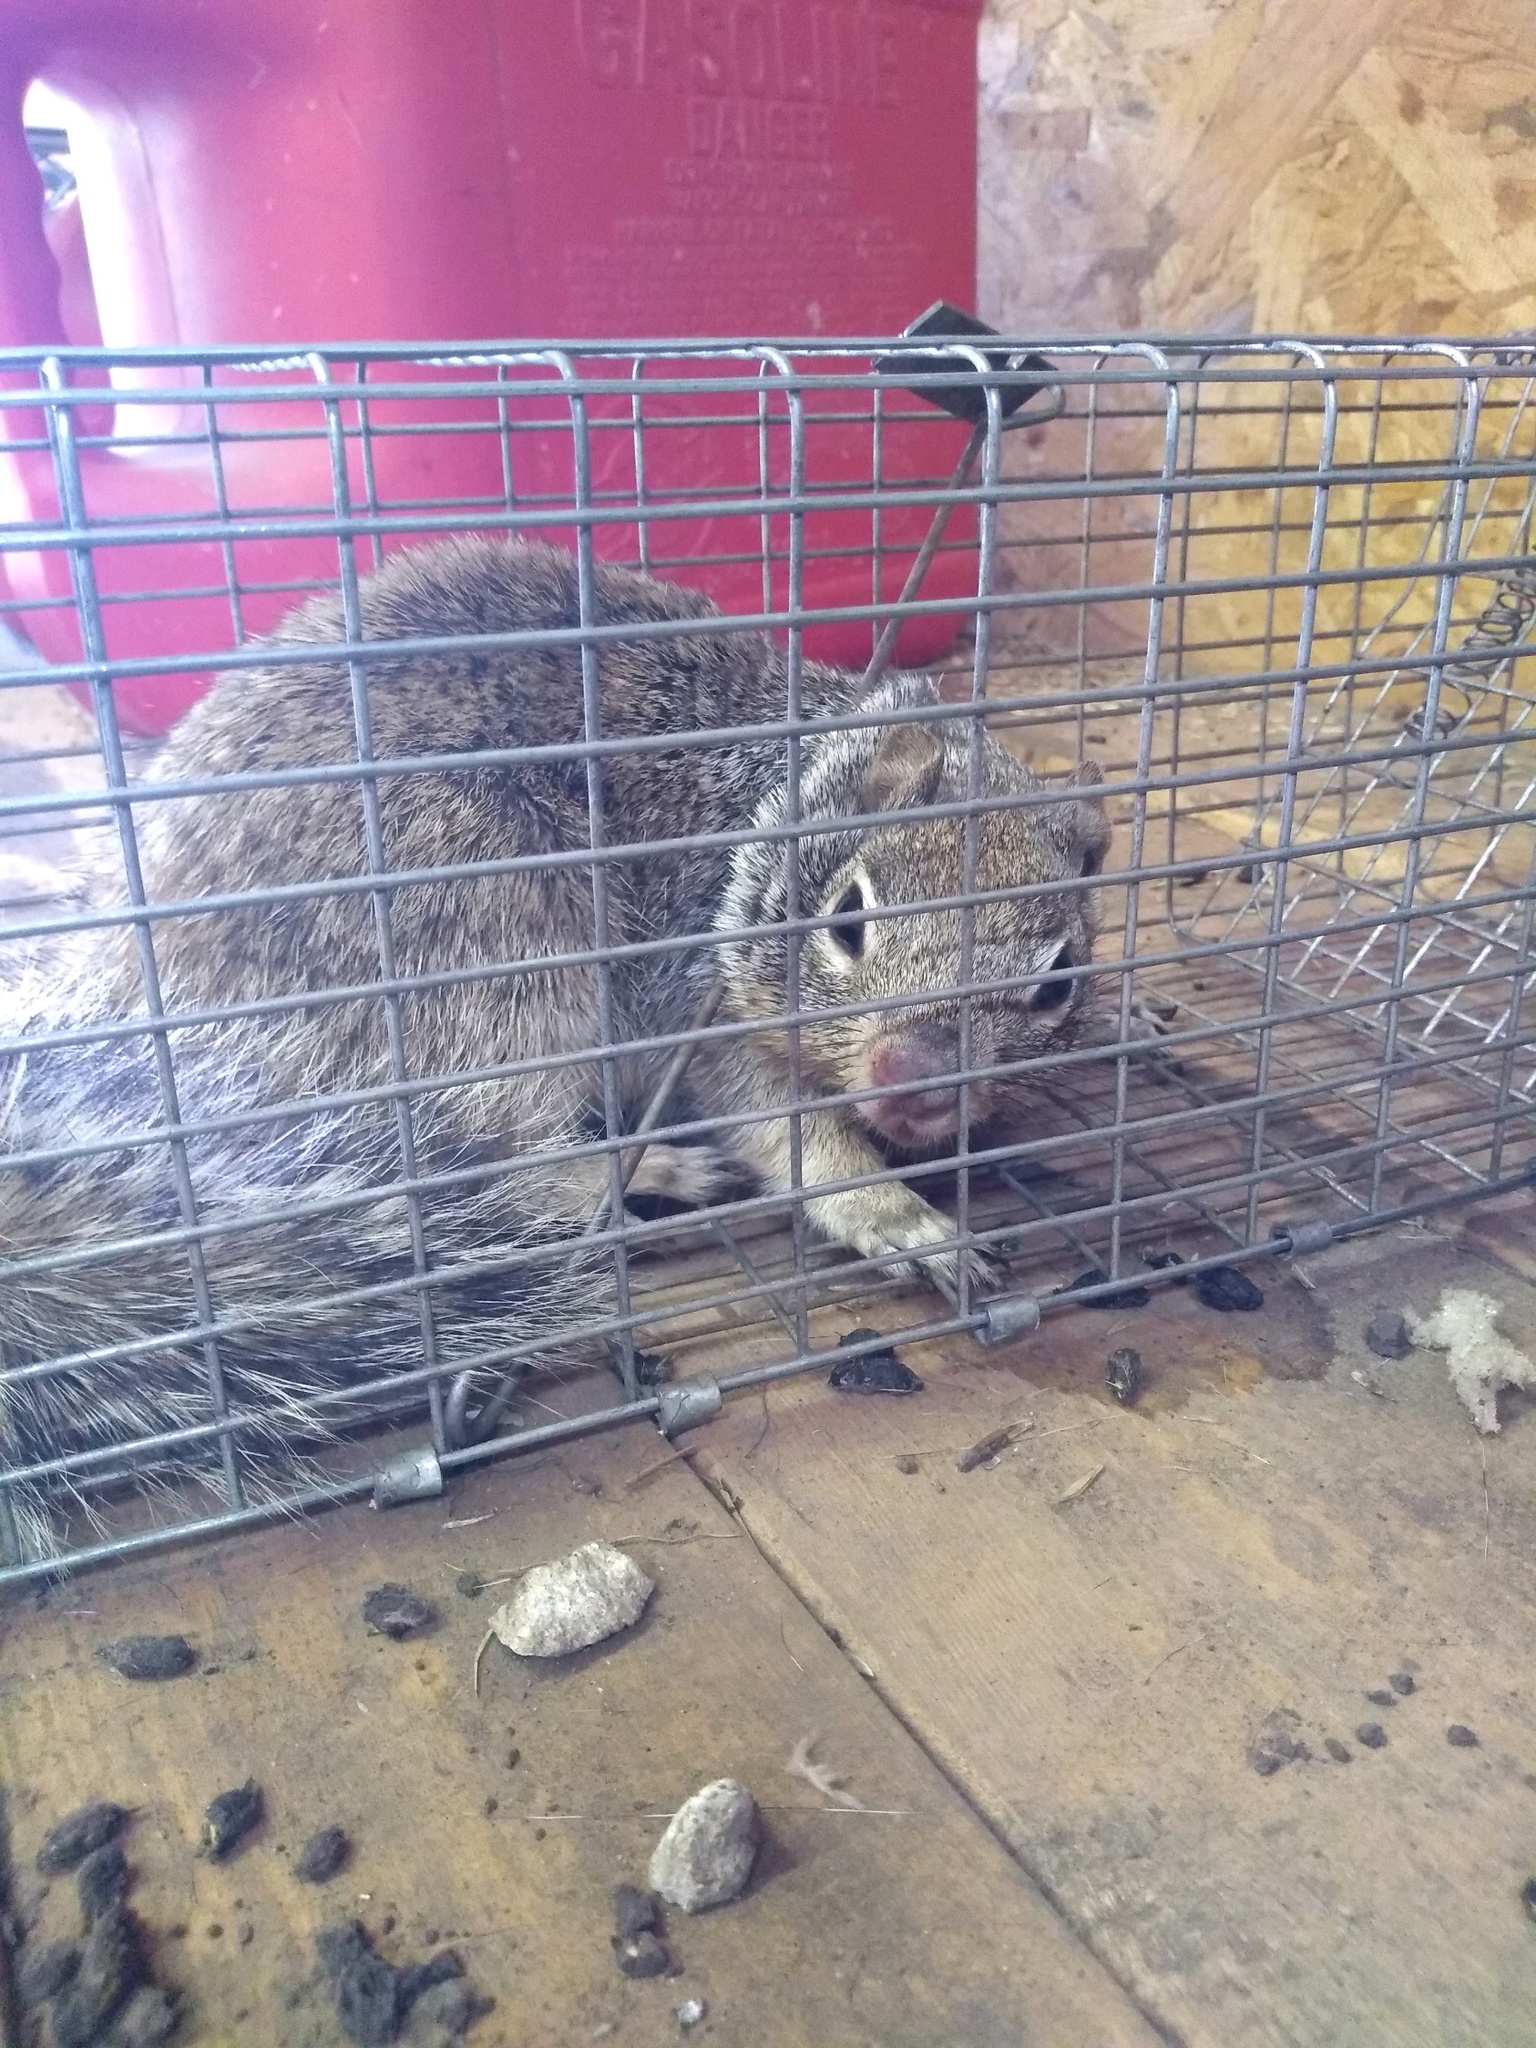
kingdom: Animalia
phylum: Chordata
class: Mammalia
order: Rodentia
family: Sciuridae
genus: Otospermophilus
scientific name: Otospermophilus variegatus
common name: Rock squirrel
